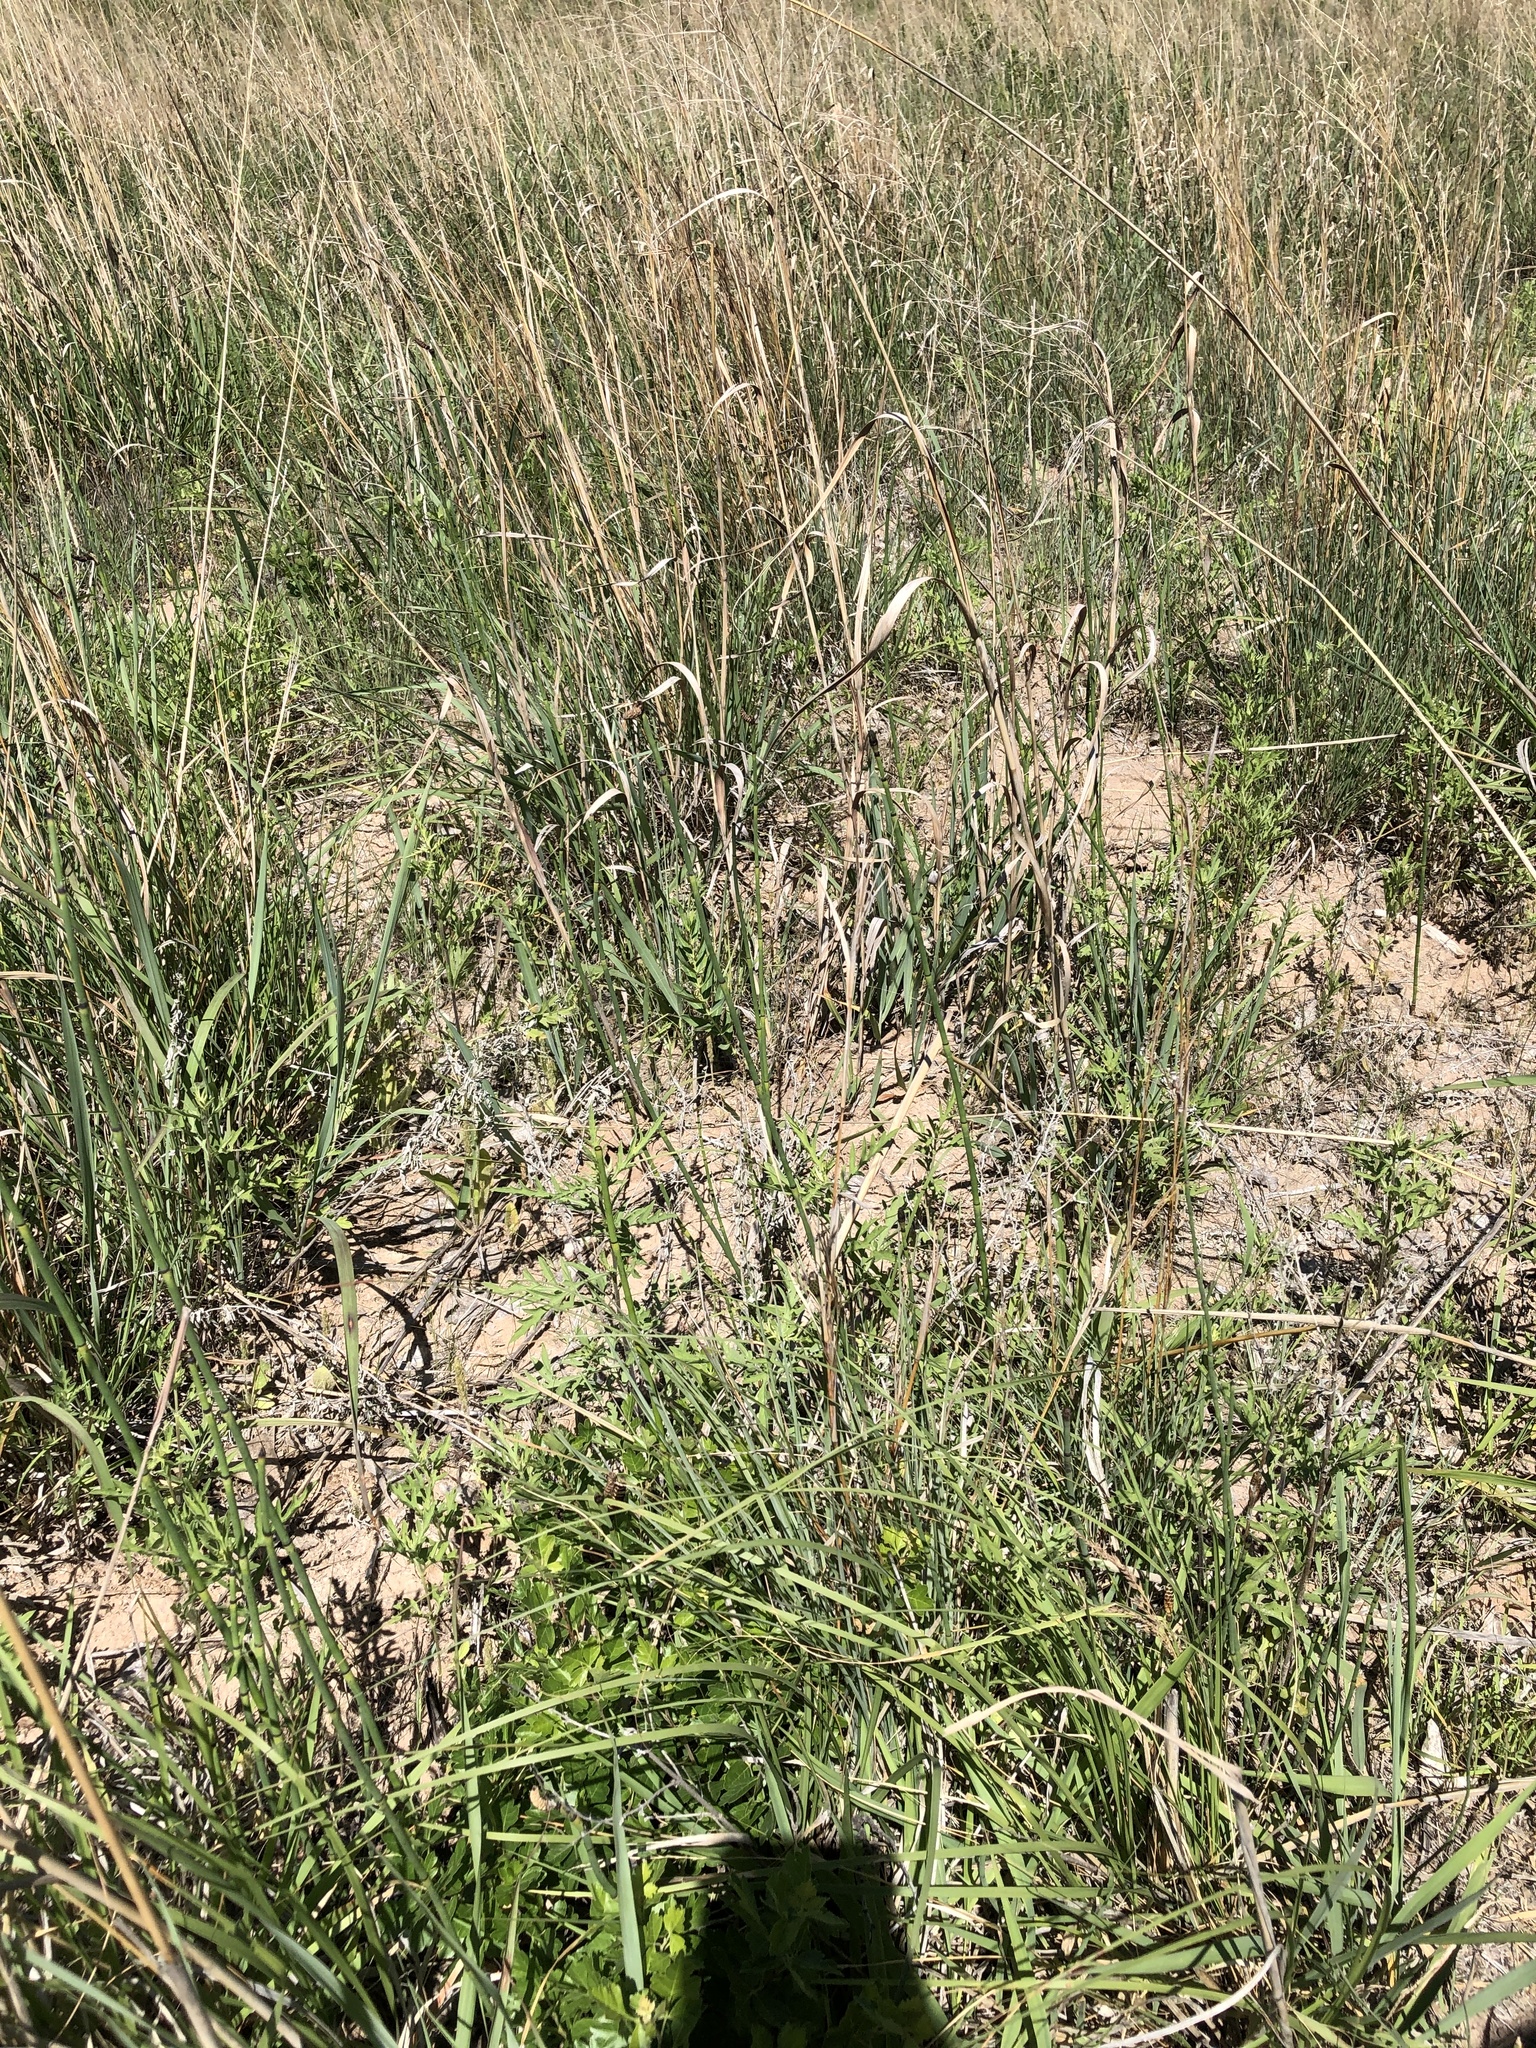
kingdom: Plantae
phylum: Tracheophyta
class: Polypodiopsida
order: Equisetales
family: Equisetaceae
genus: Equisetum
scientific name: Equisetum laevigatum
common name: Smooth scouring-rush
